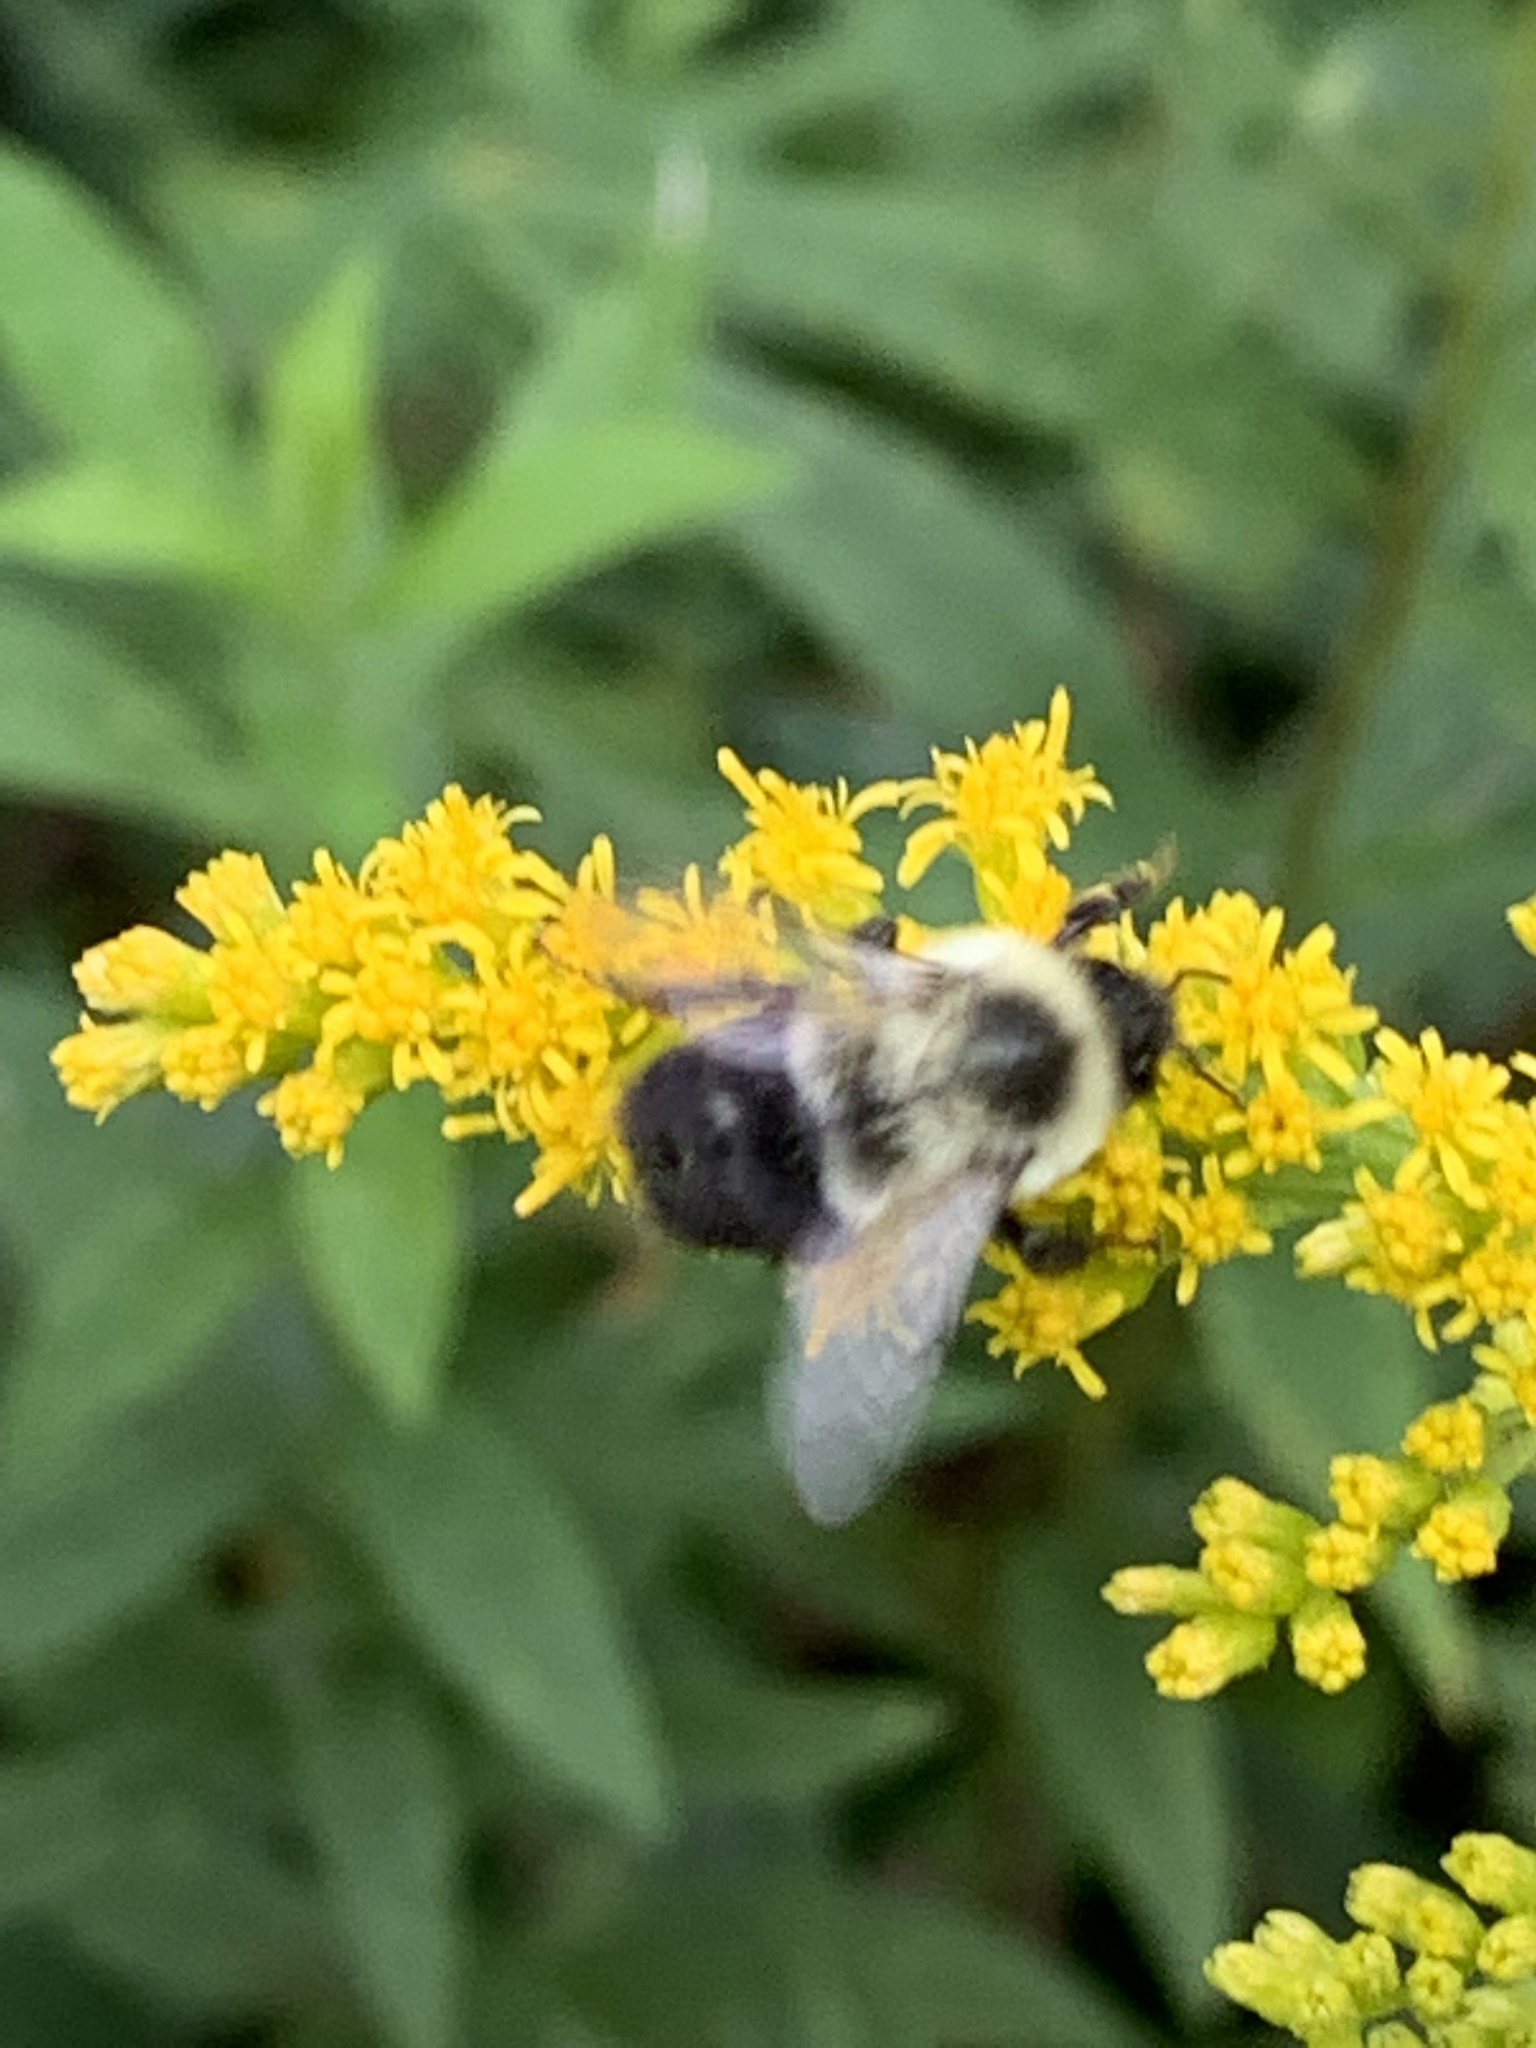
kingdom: Animalia
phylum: Arthropoda
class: Insecta
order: Hymenoptera
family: Apidae
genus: Bombus
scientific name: Bombus impatiens
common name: Common eastern bumble bee
